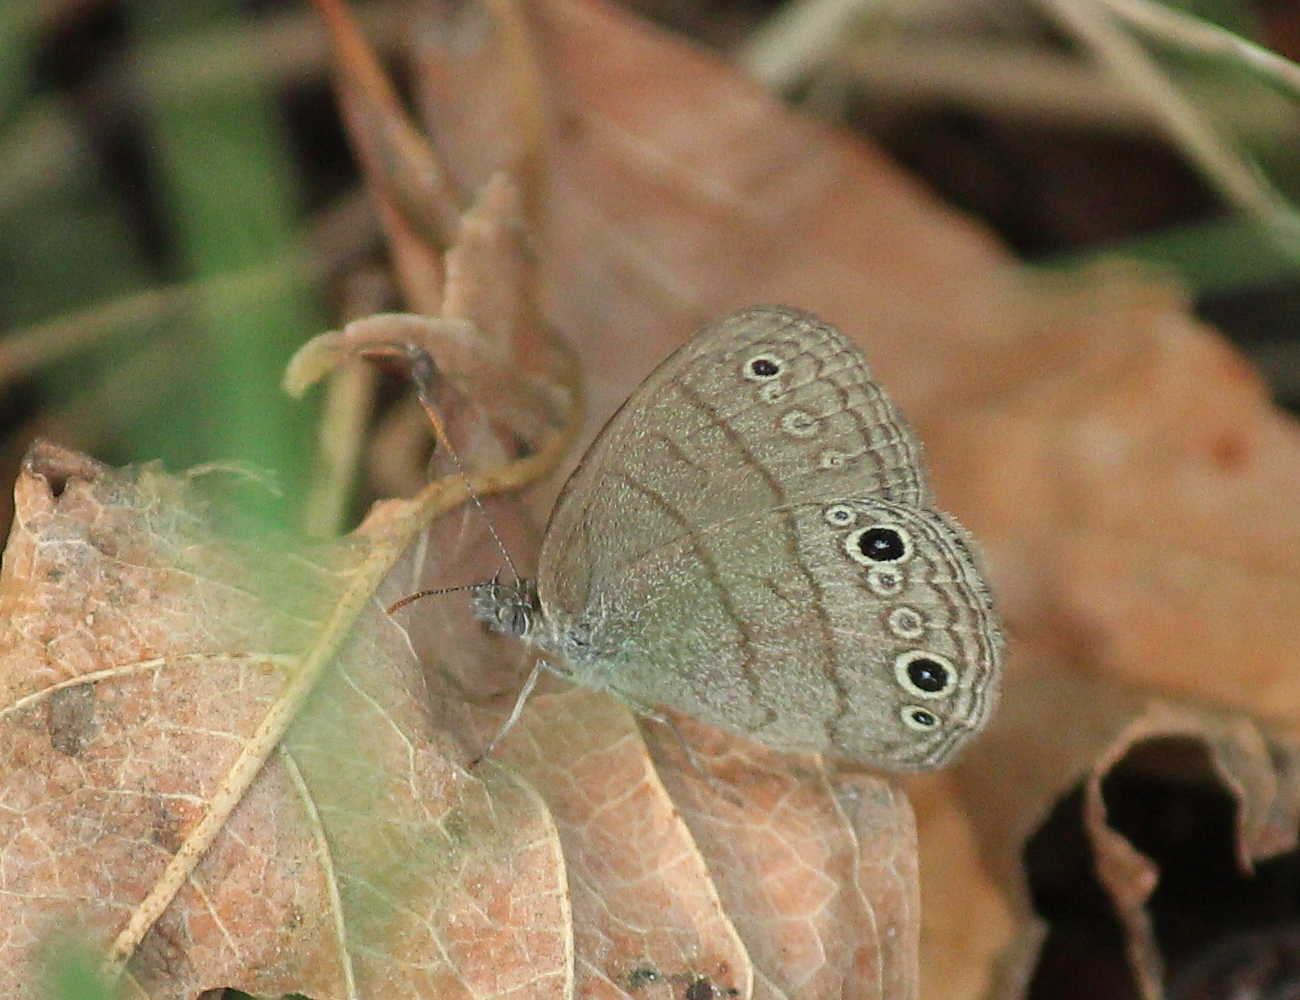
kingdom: Animalia
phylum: Arthropoda
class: Insecta
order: Lepidoptera
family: Nymphalidae
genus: Hermeuptychia
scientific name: Hermeuptychia hermes
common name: Hermes satyr
